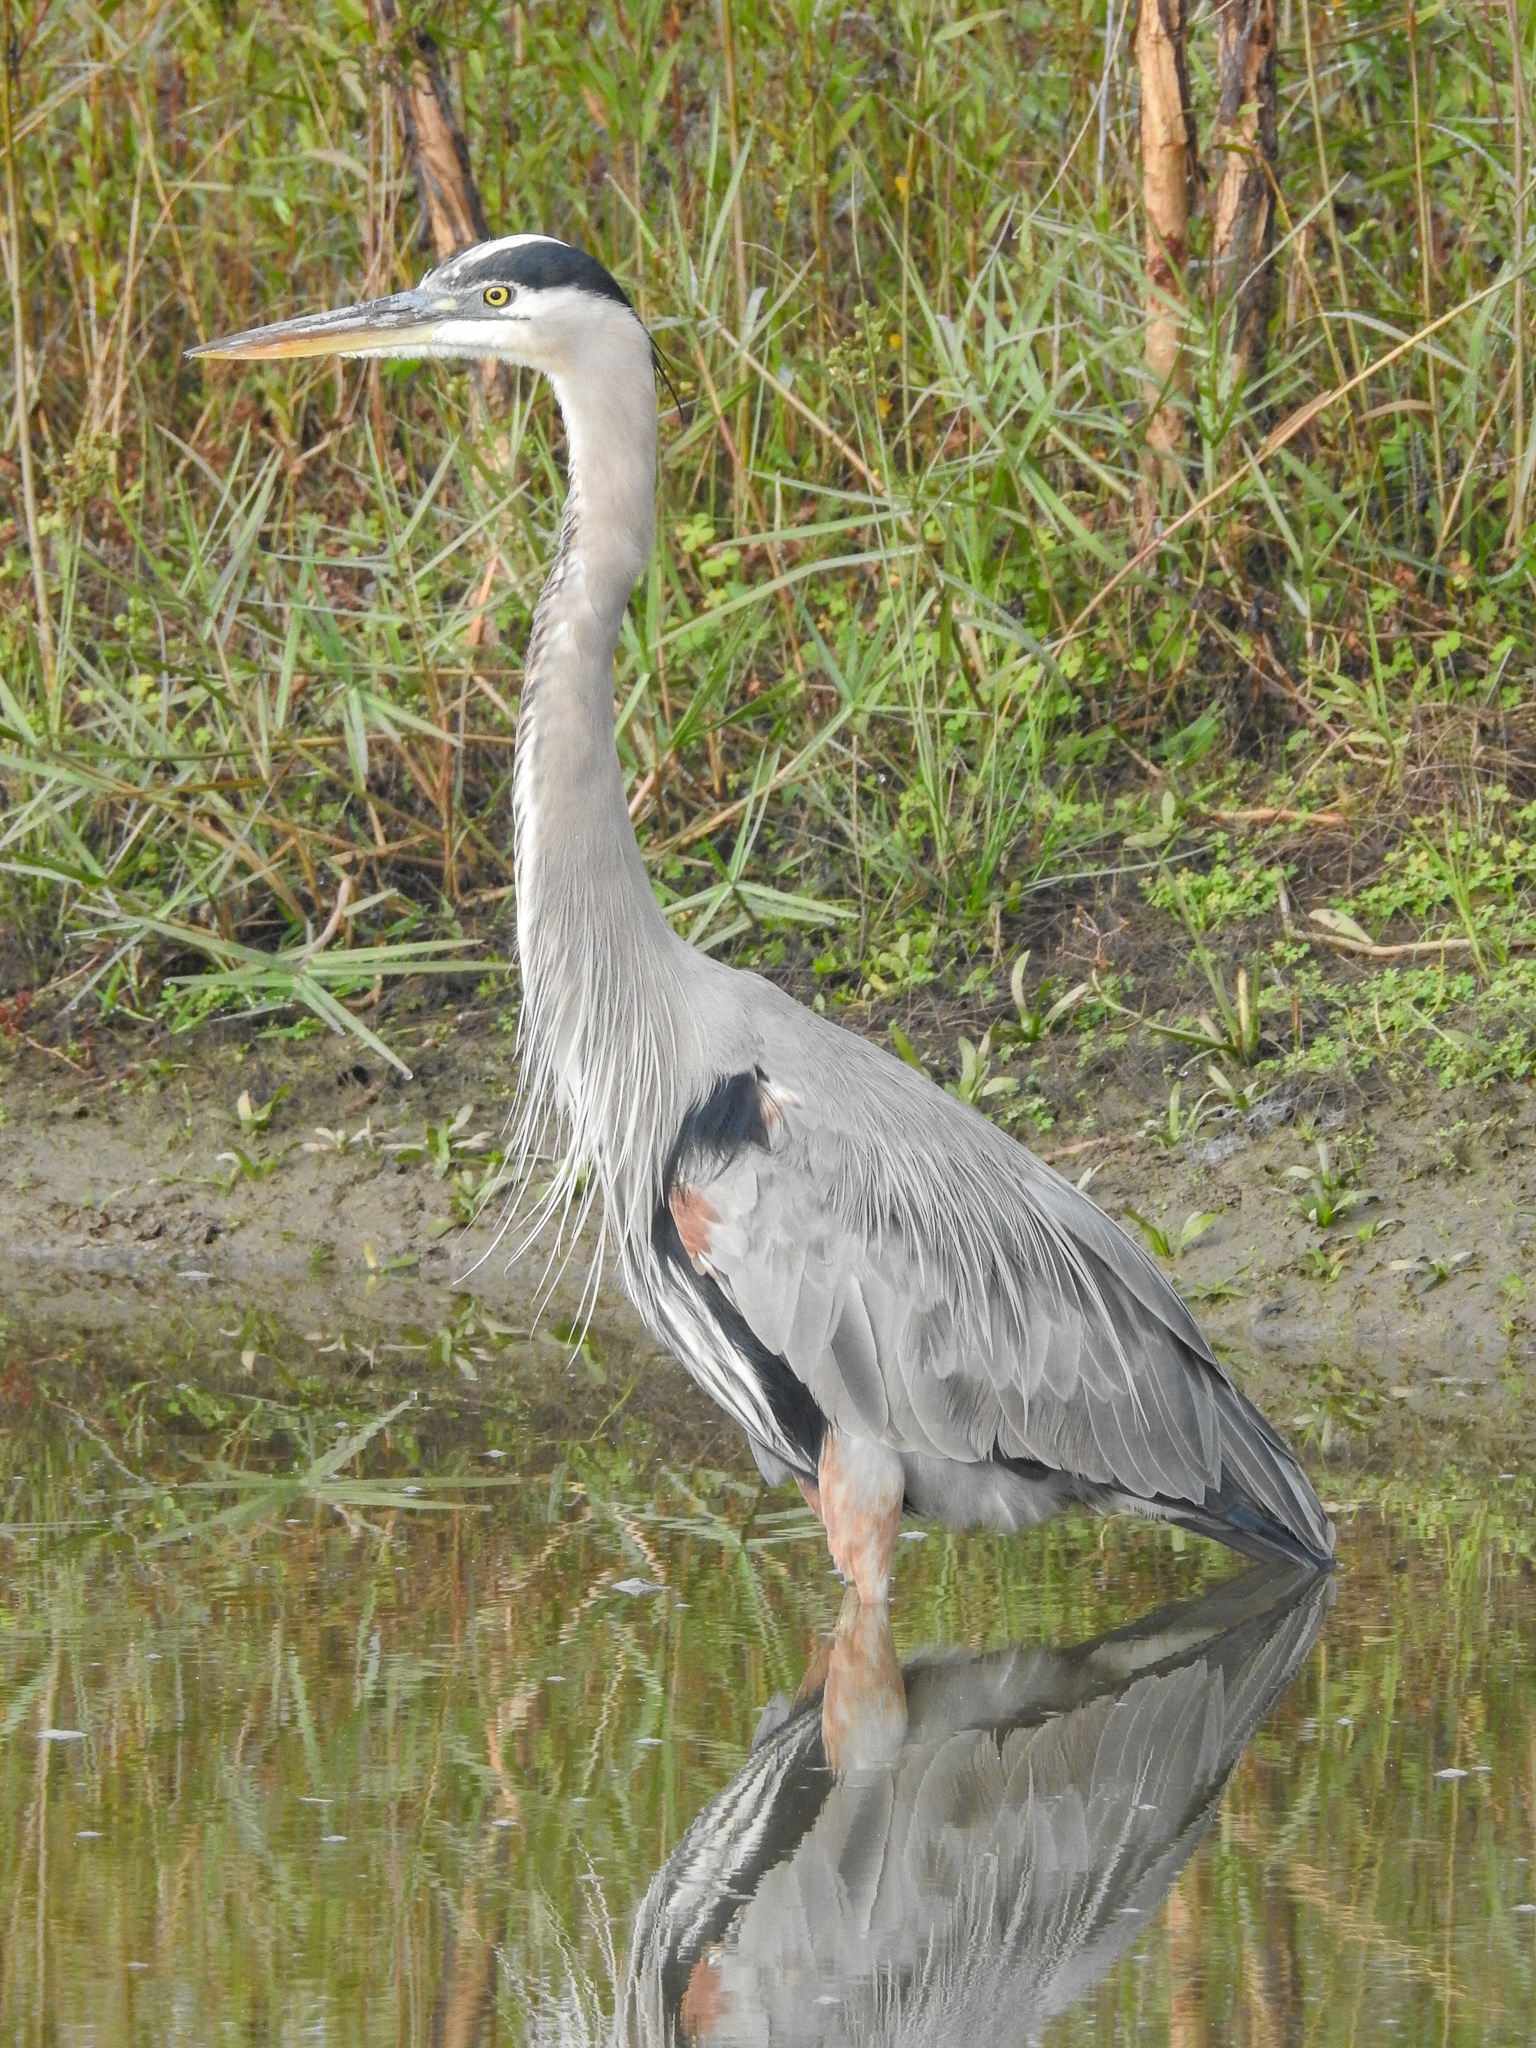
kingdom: Animalia
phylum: Chordata
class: Aves
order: Pelecaniformes
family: Ardeidae
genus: Ardea
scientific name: Ardea herodias
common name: Great blue heron
